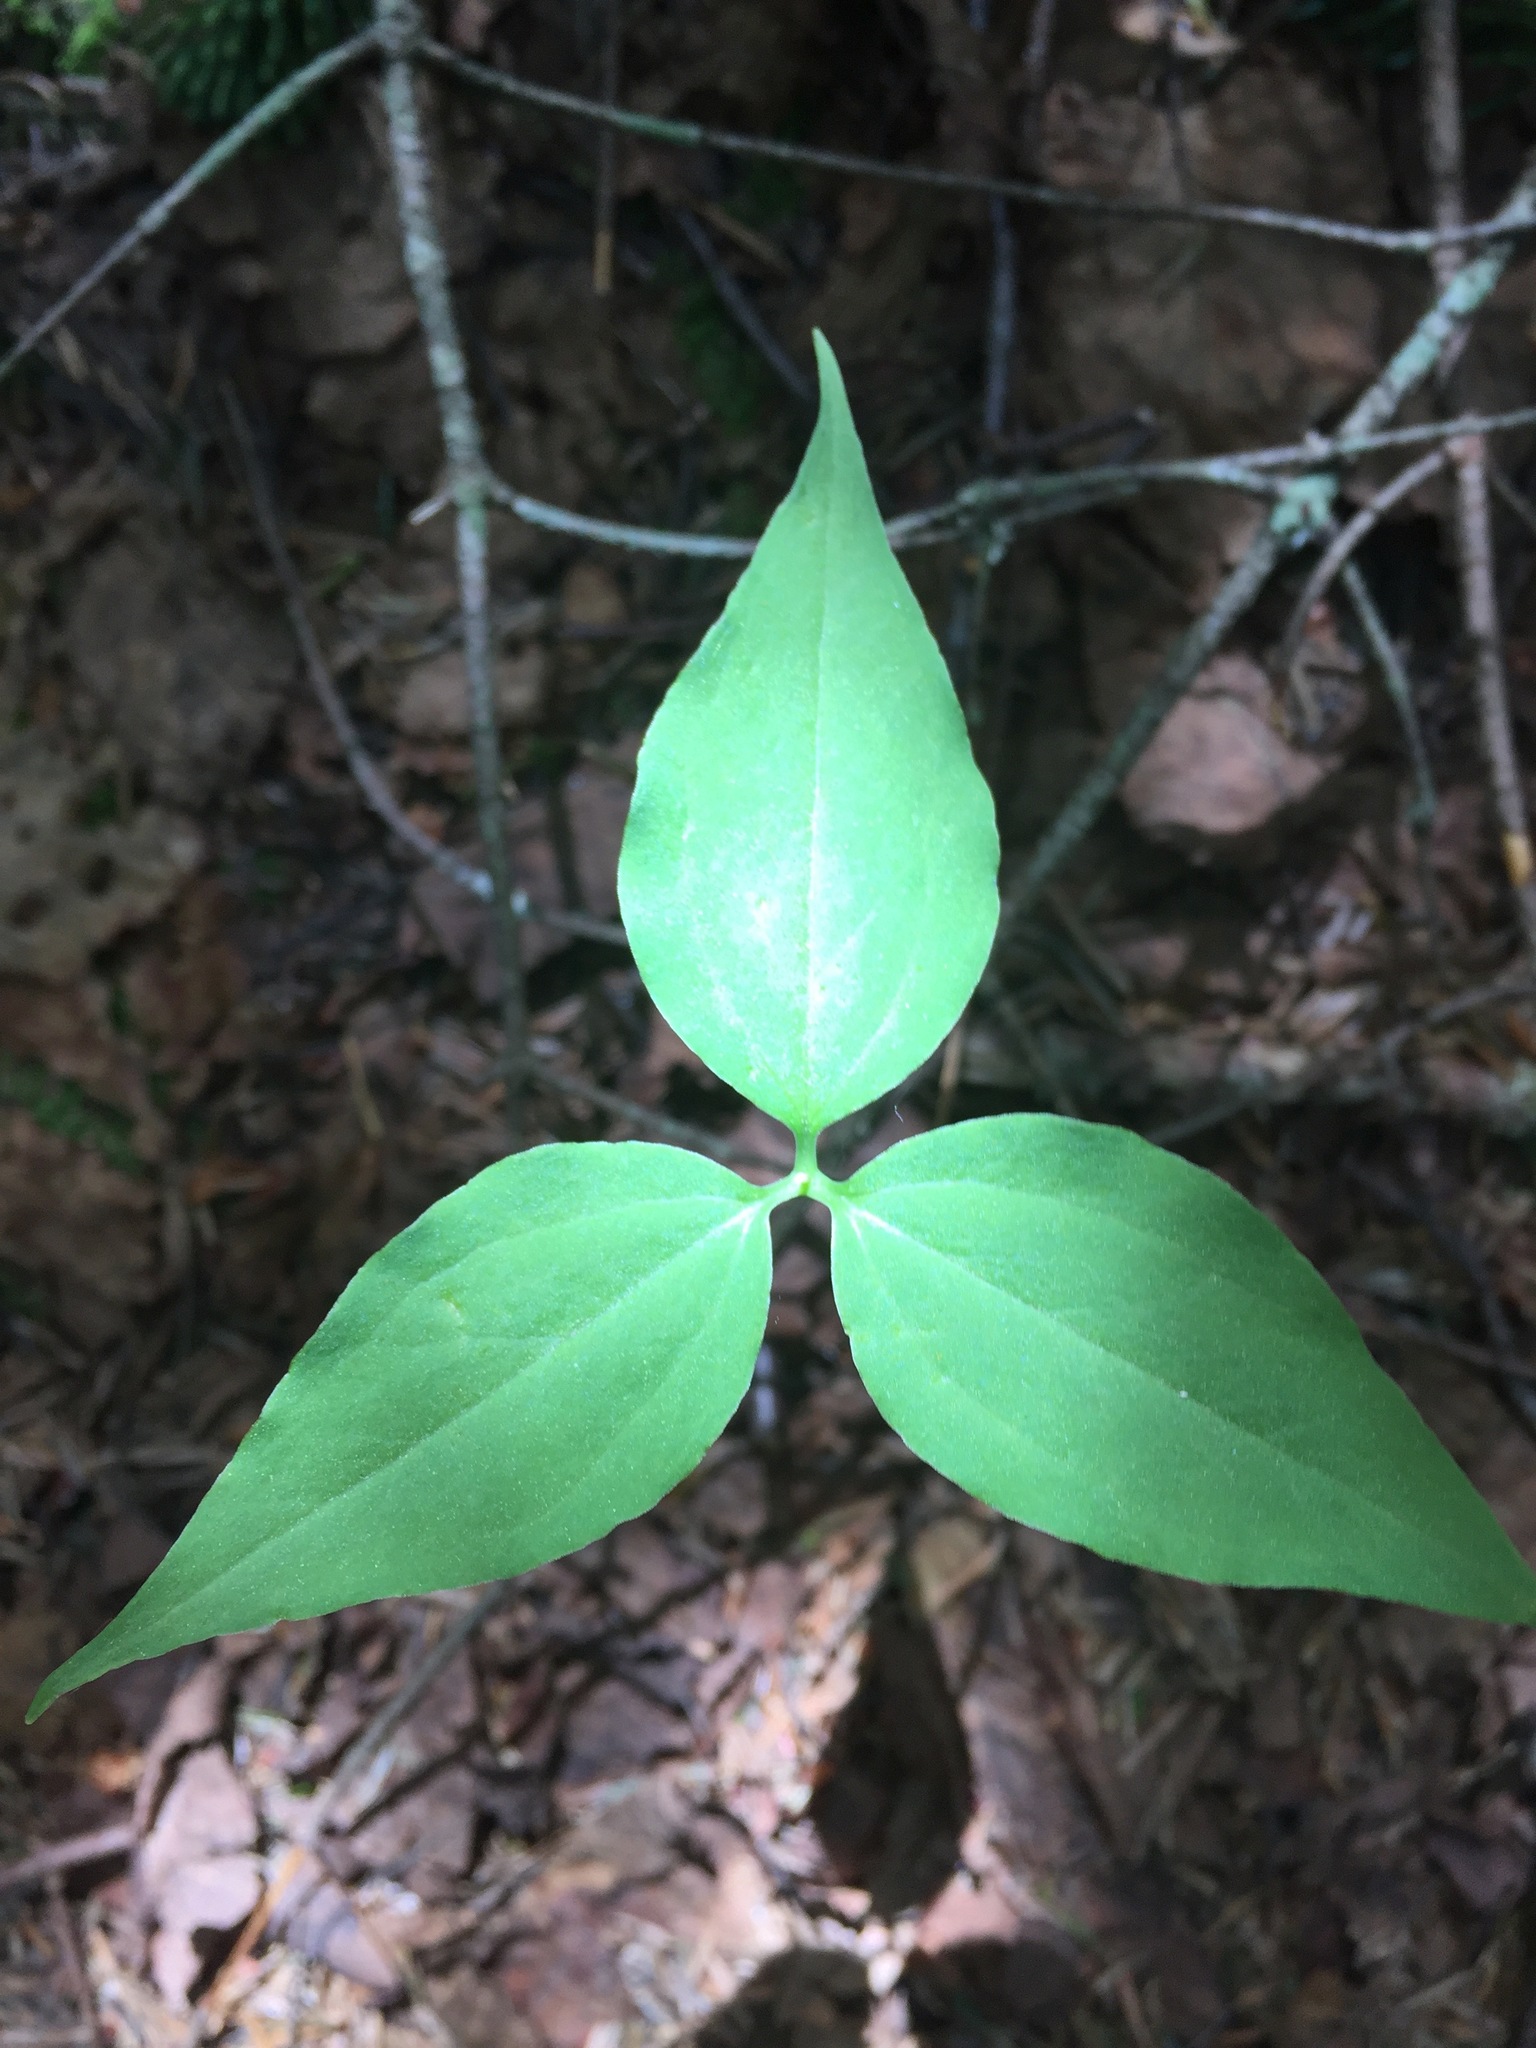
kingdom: Plantae
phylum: Tracheophyta
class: Liliopsida
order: Liliales
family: Melanthiaceae
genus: Trillium
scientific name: Trillium undulatum
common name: Paint trillium
